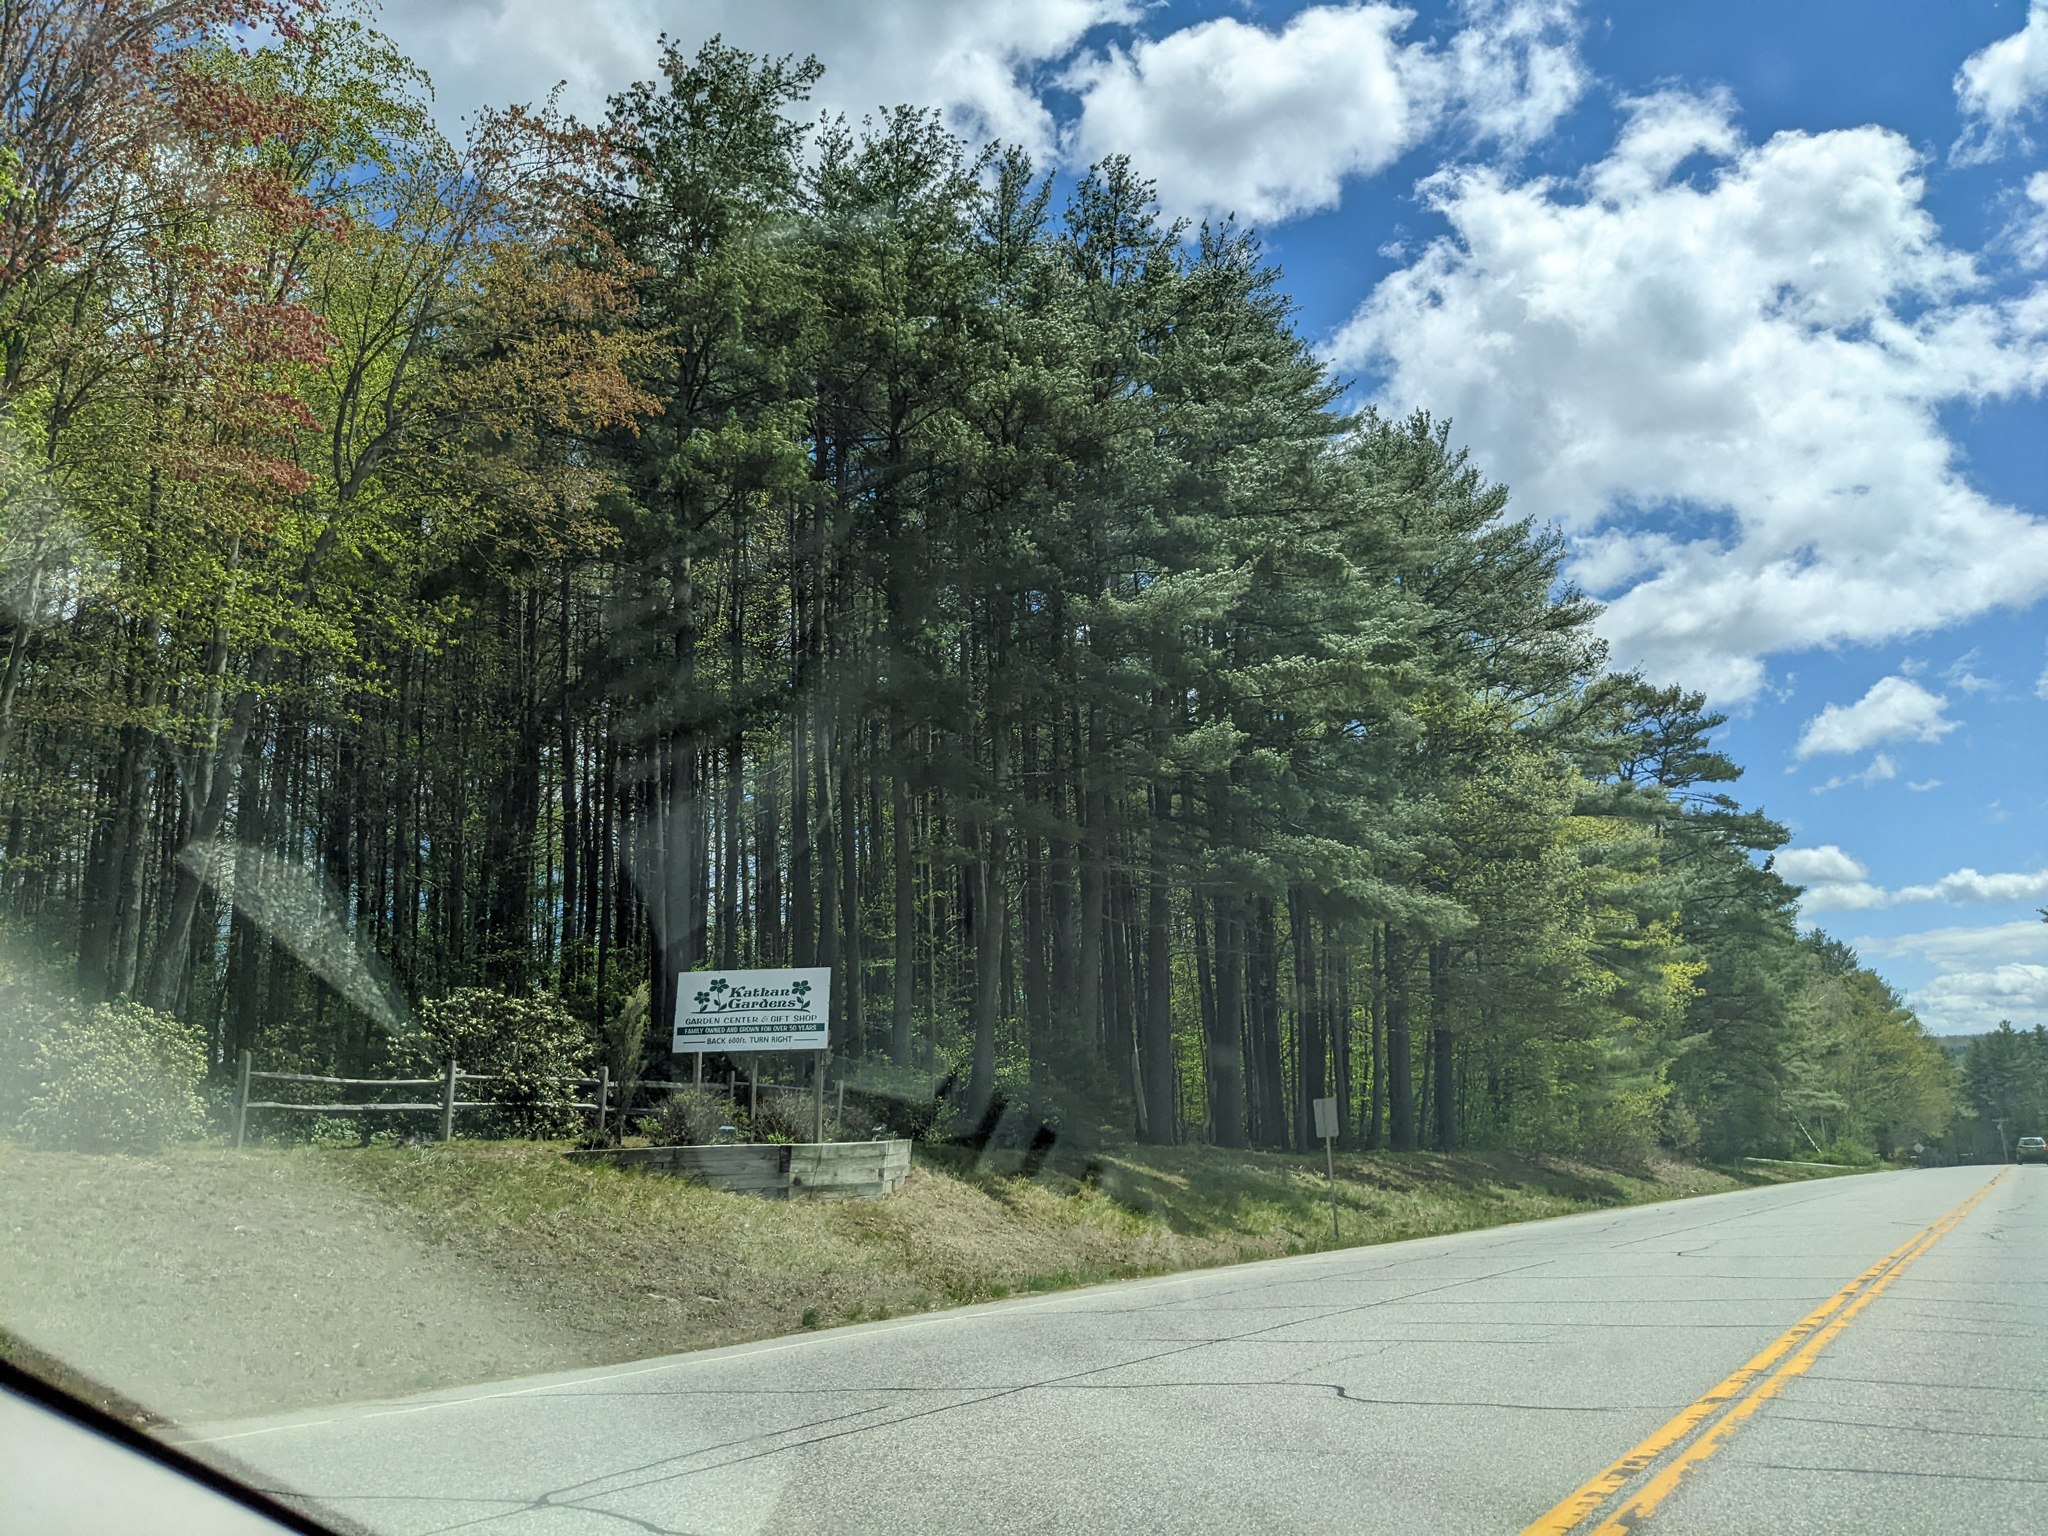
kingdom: Plantae
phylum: Tracheophyta
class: Pinopsida
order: Pinales
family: Pinaceae
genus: Pinus
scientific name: Pinus strobus
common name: Weymouth pine
